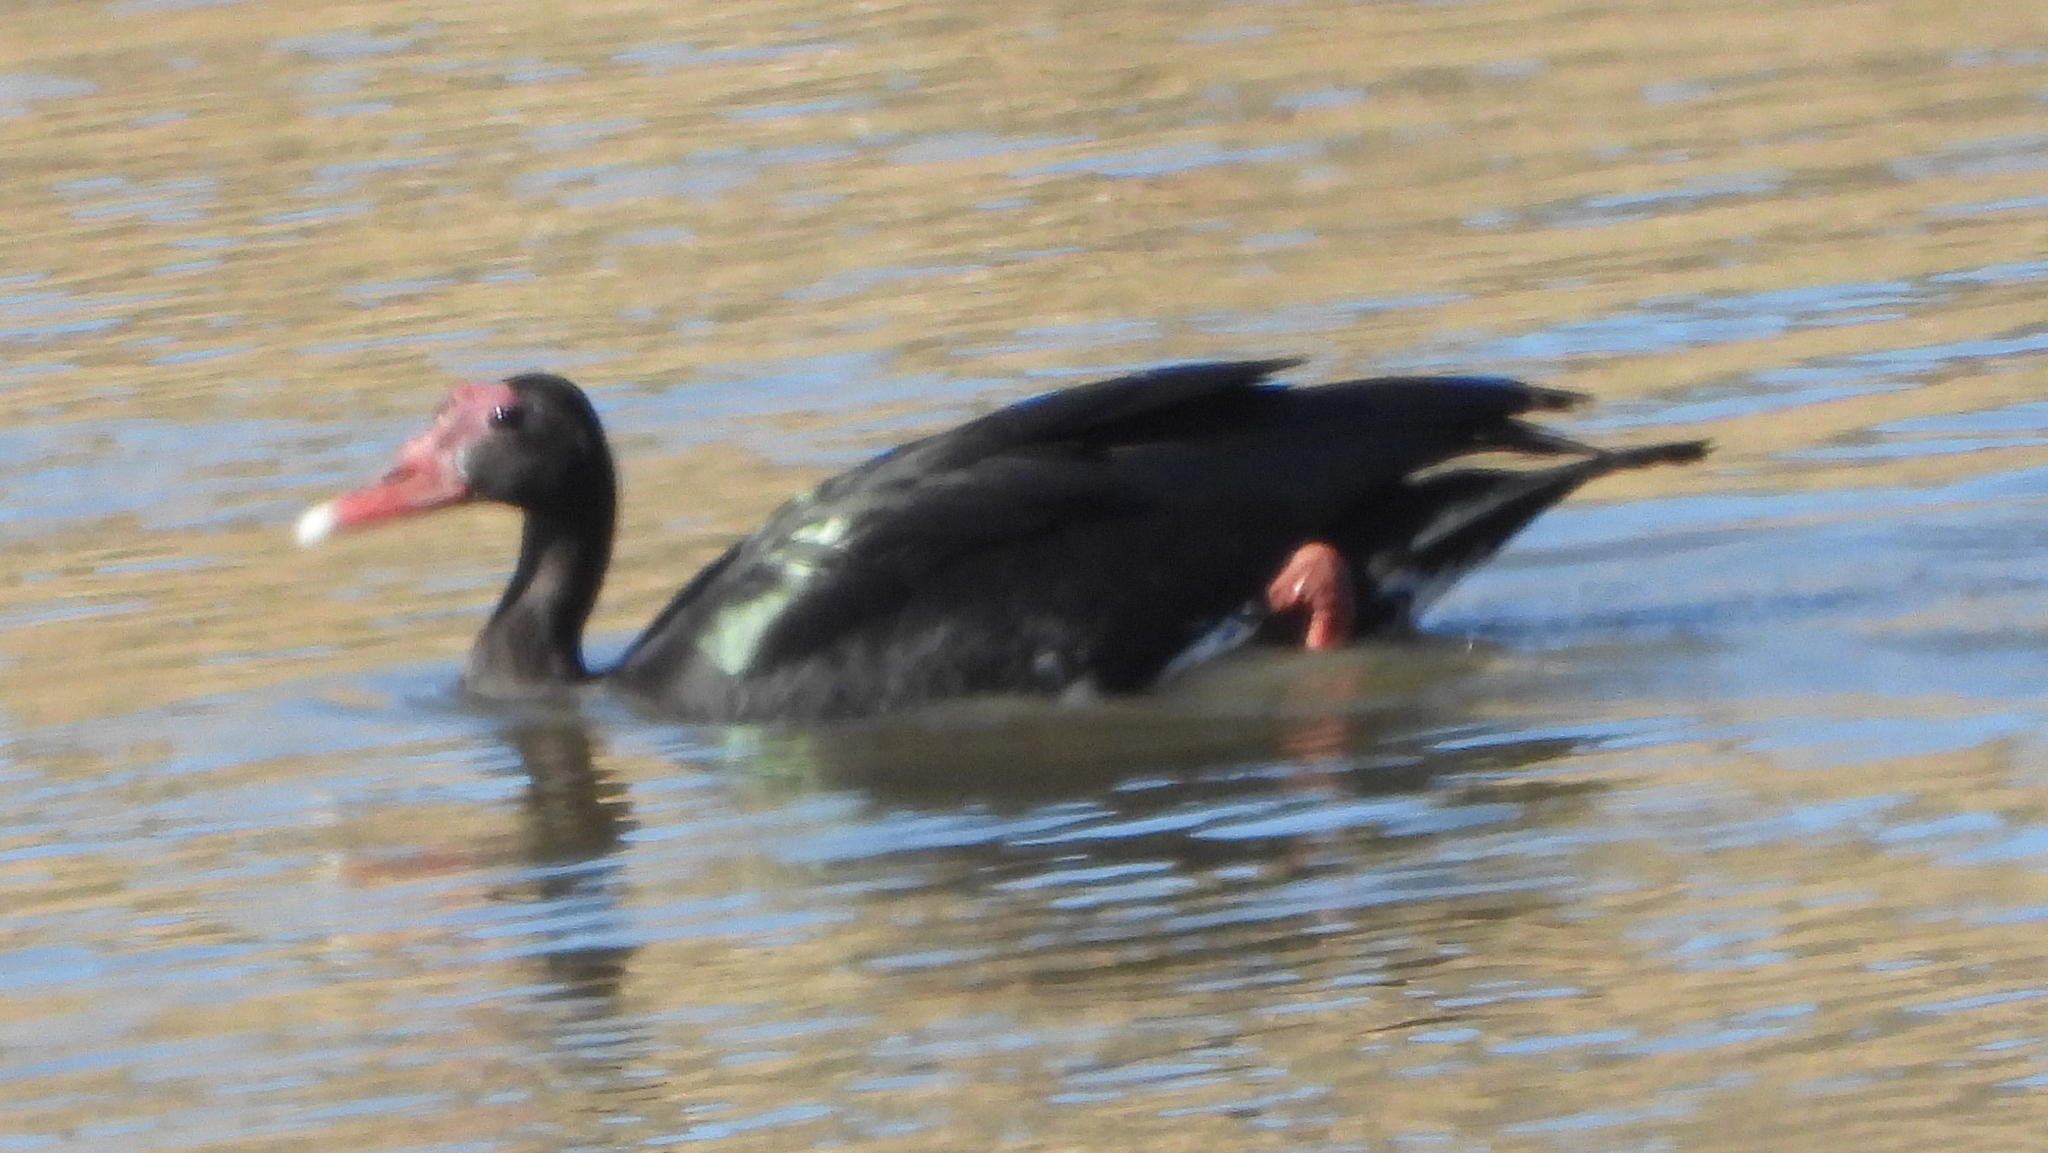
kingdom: Animalia
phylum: Chordata
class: Aves
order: Anseriformes
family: Anatidae
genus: Plectropterus
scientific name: Plectropterus gambensis
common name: Spur-winged goose
